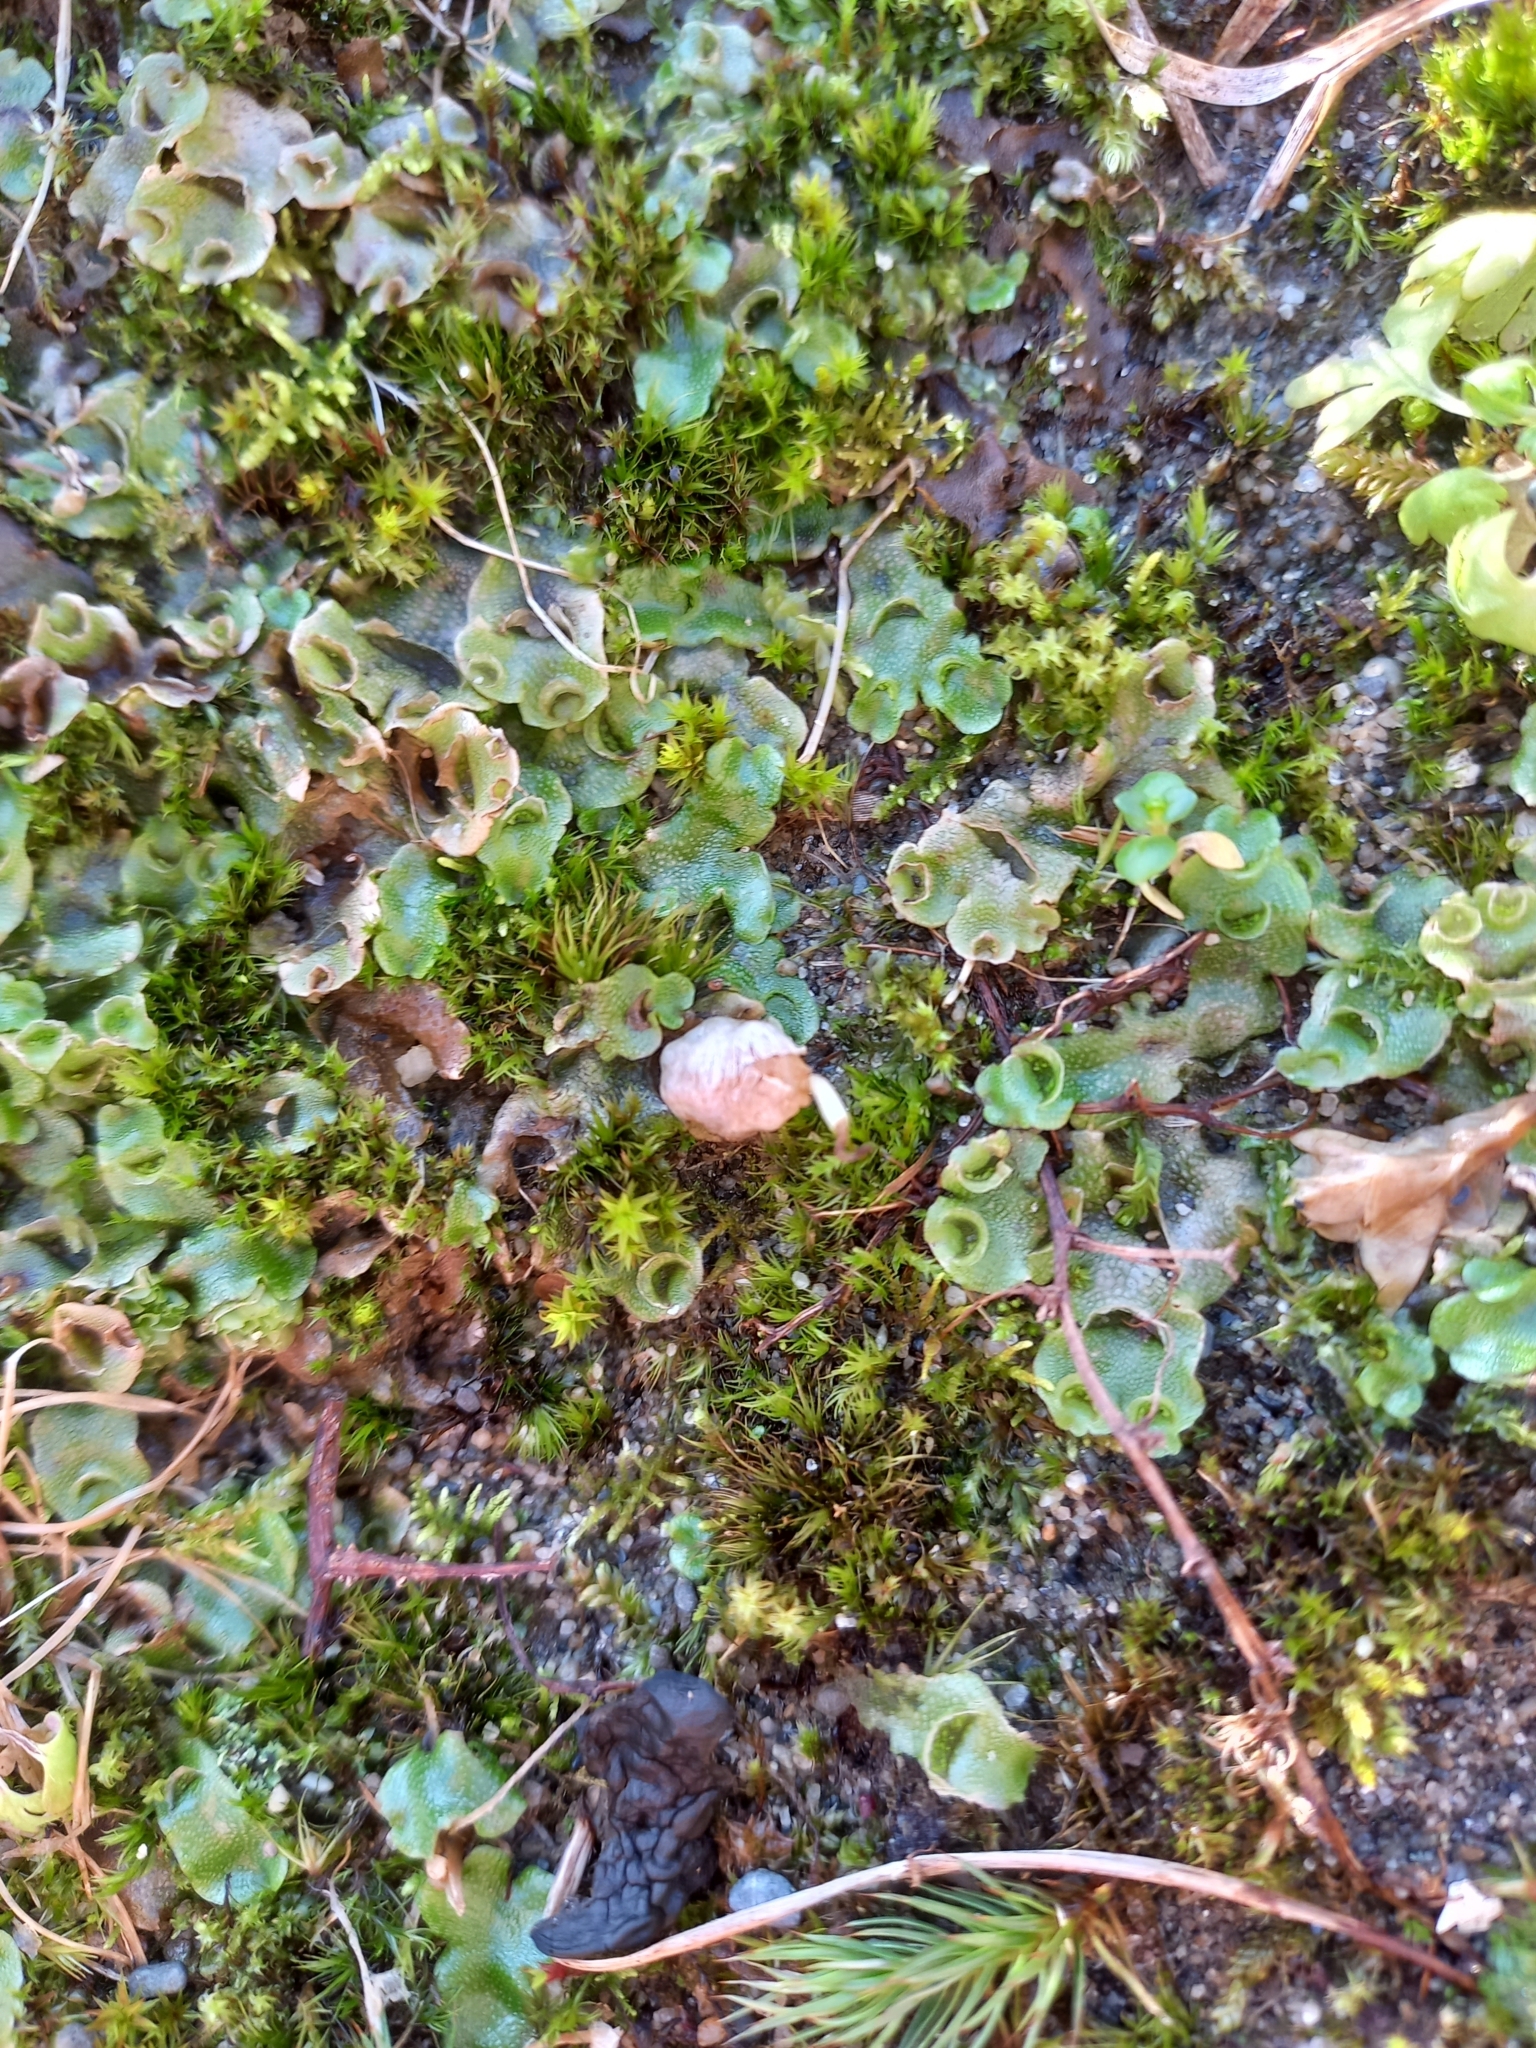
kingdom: Plantae
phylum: Marchantiophyta
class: Marchantiopsida
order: Lunulariales
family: Lunulariaceae
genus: Lunularia
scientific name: Lunularia cruciata
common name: Crescent-cup liverwort
